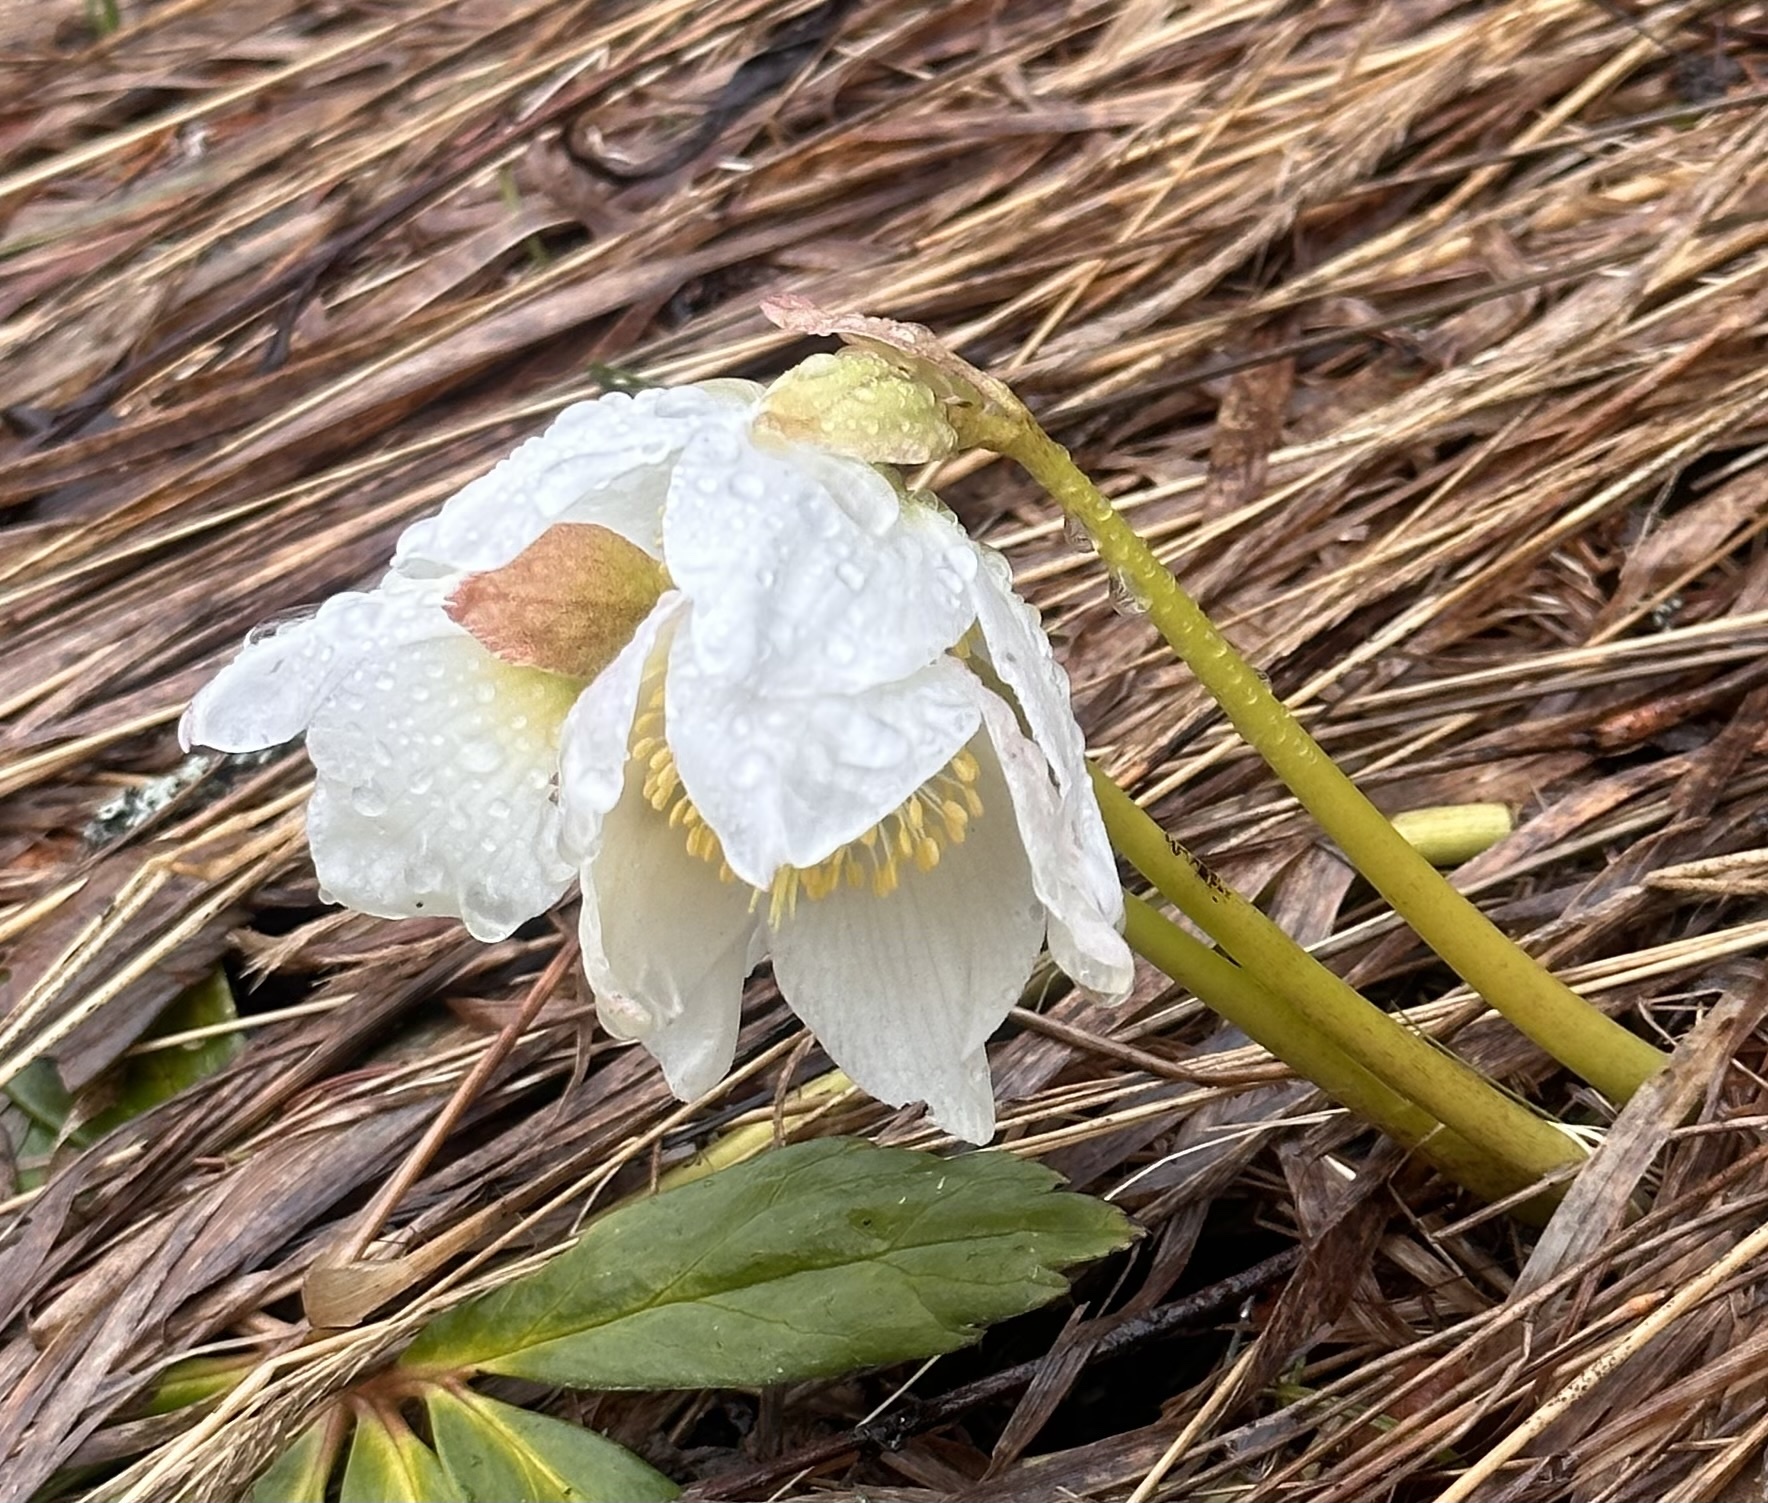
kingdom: Plantae
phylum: Tracheophyta
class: Magnoliopsida
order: Ranunculales
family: Ranunculaceae
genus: Helleborus
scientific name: Helleborus niger
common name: Black hellebore
